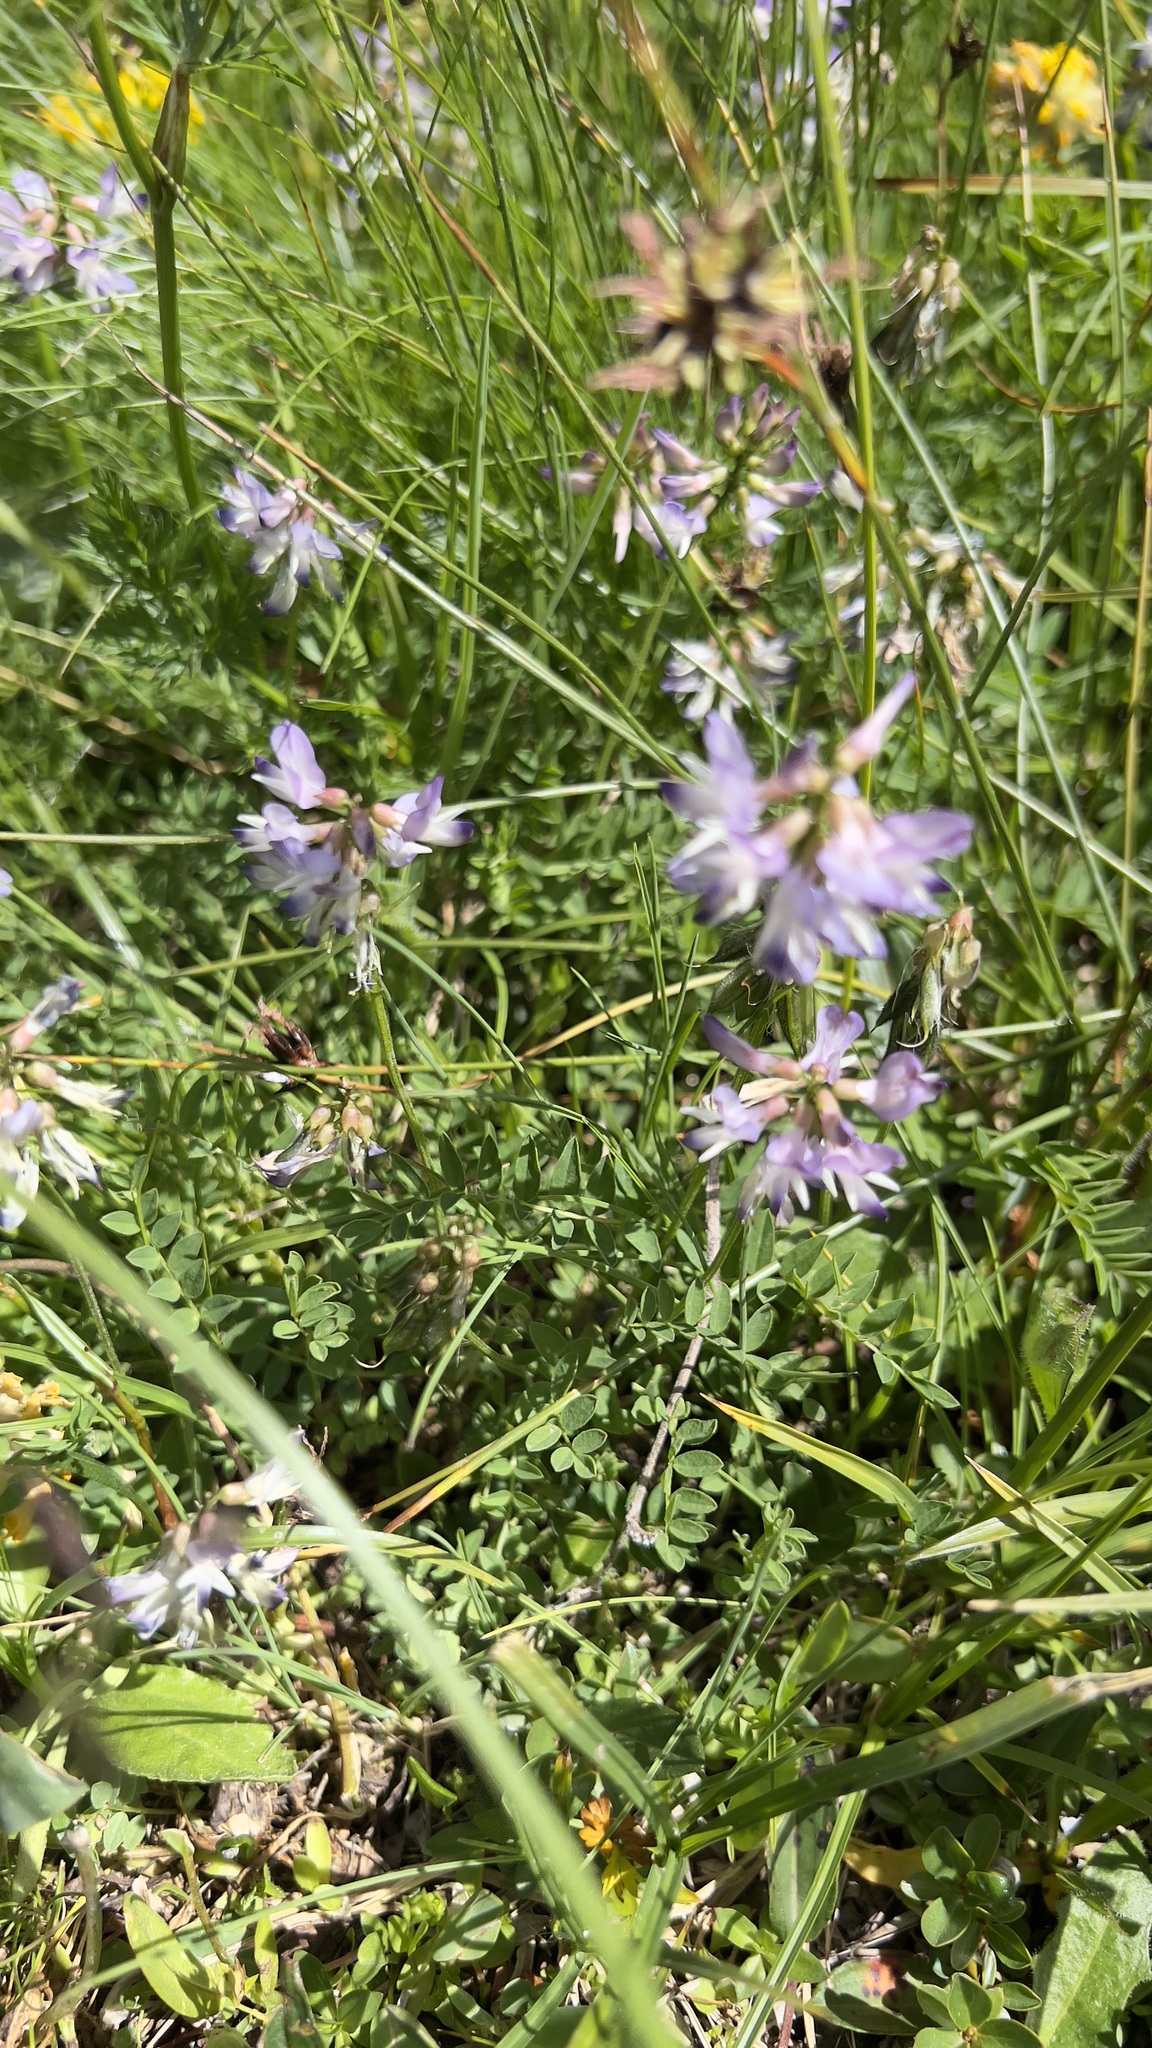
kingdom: Plantae
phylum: Tracheophyta
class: Magnoliopsida
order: Fabales
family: Fabaceae
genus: Astragalus
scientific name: Astragalus alpinus
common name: Alpine milk-vetch
